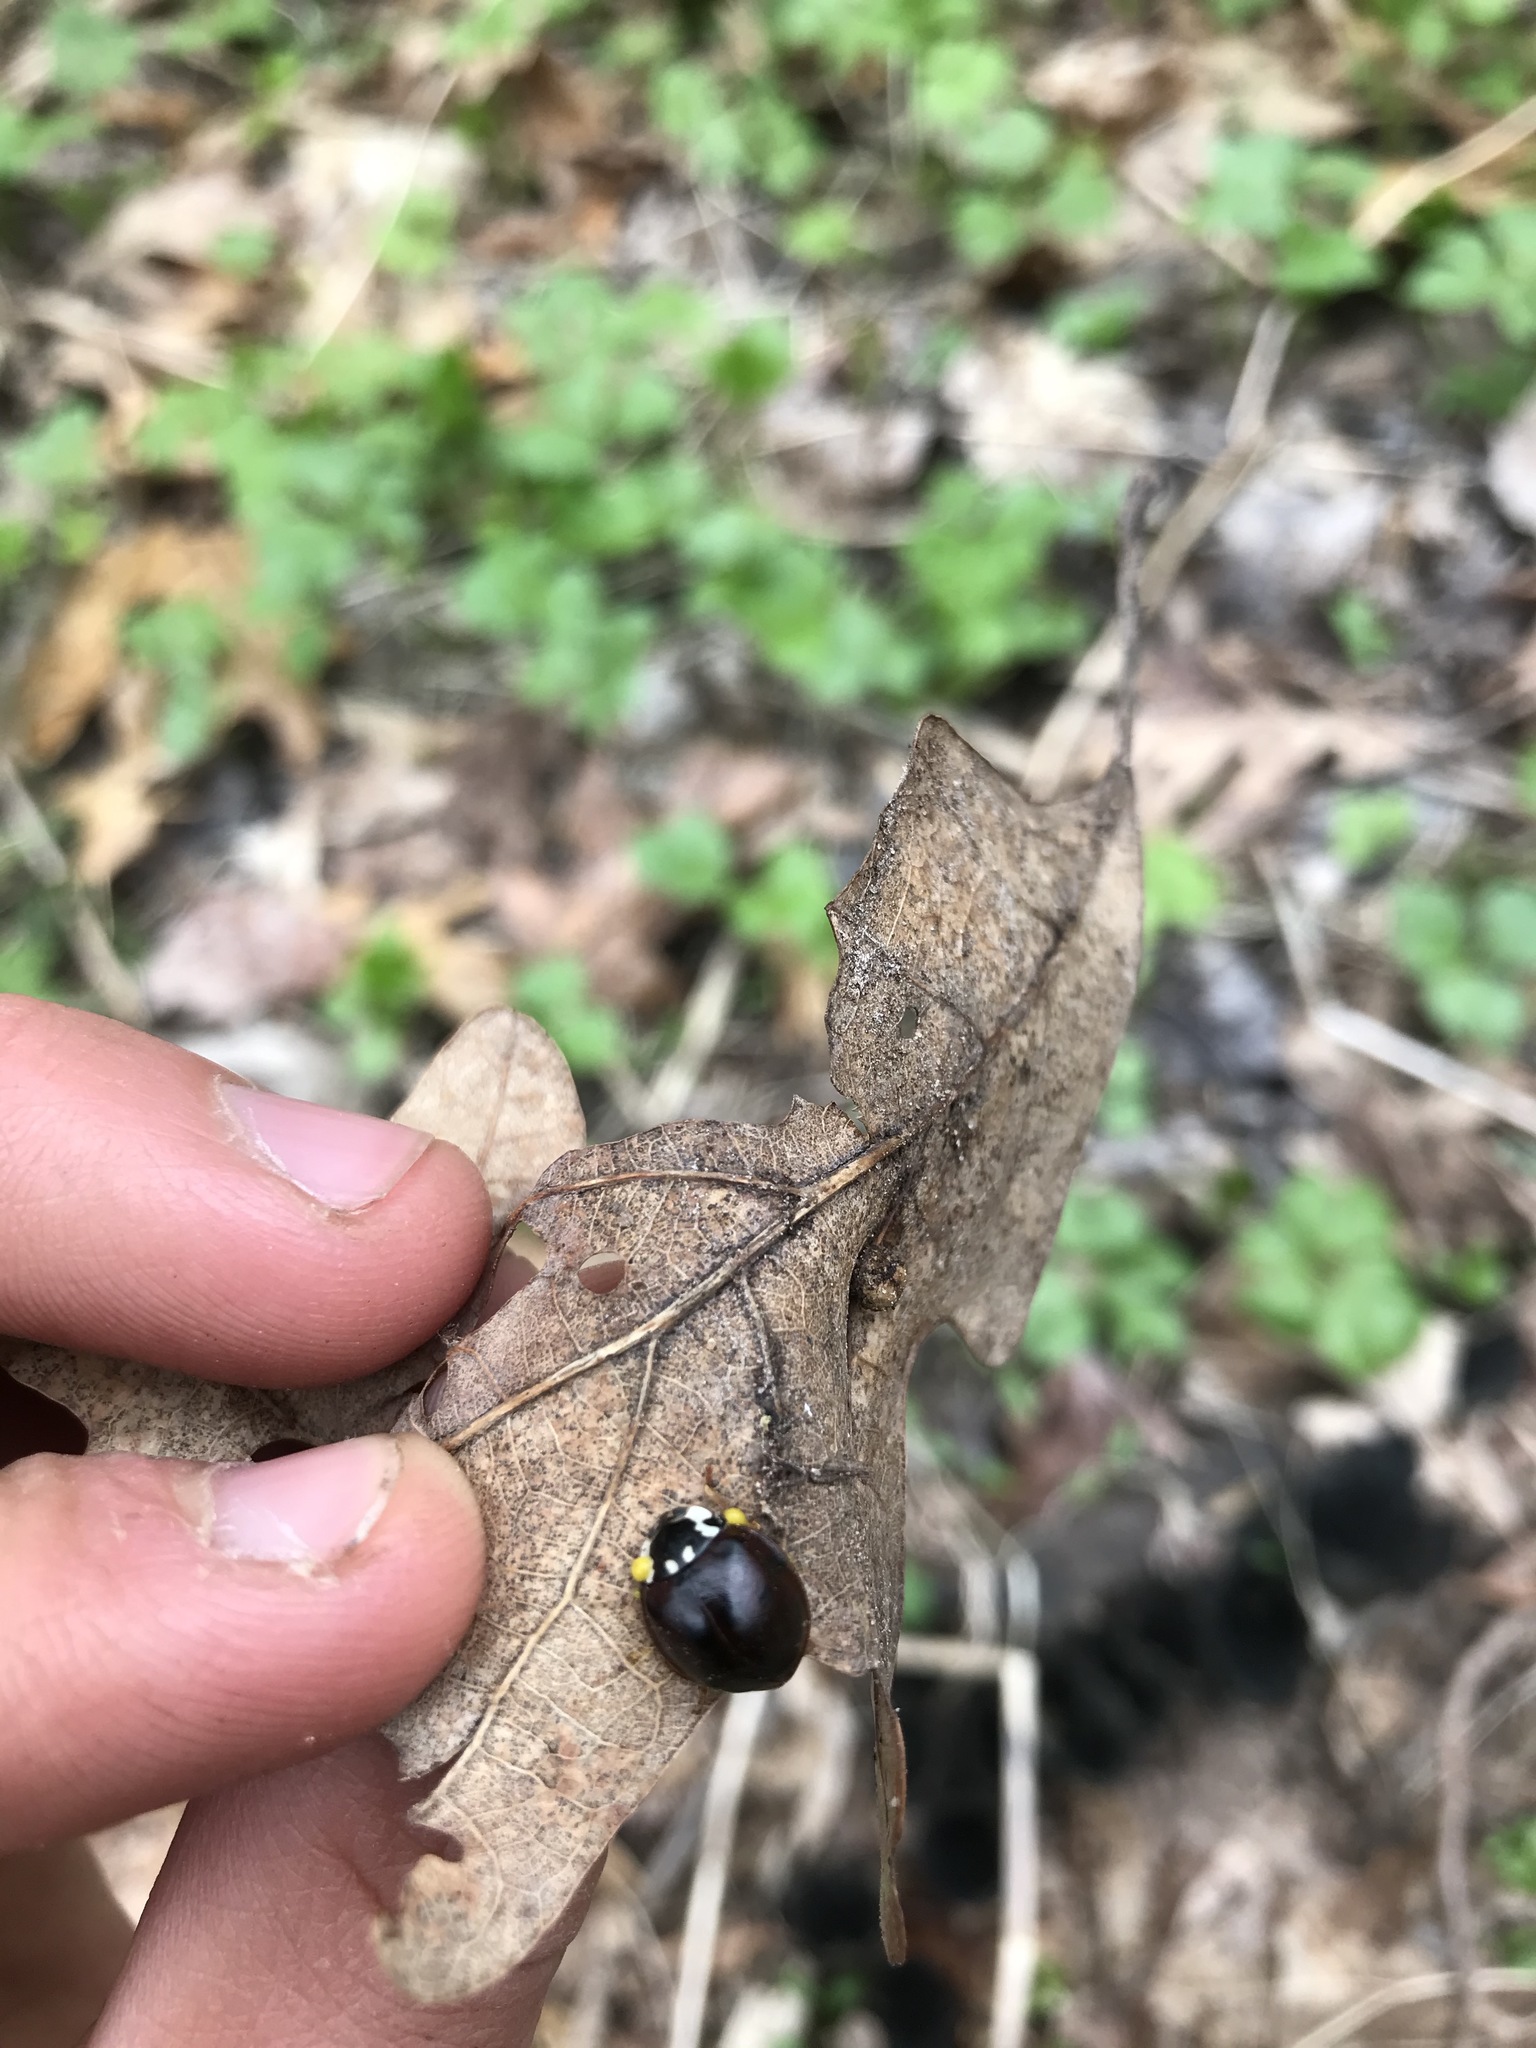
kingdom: Animalia
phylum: Arthropoda
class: Insecta
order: Coleoptera
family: Coccinellidae
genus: Anatis
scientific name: Anatis labiculata
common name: Fifteen-spotted lady beetle
